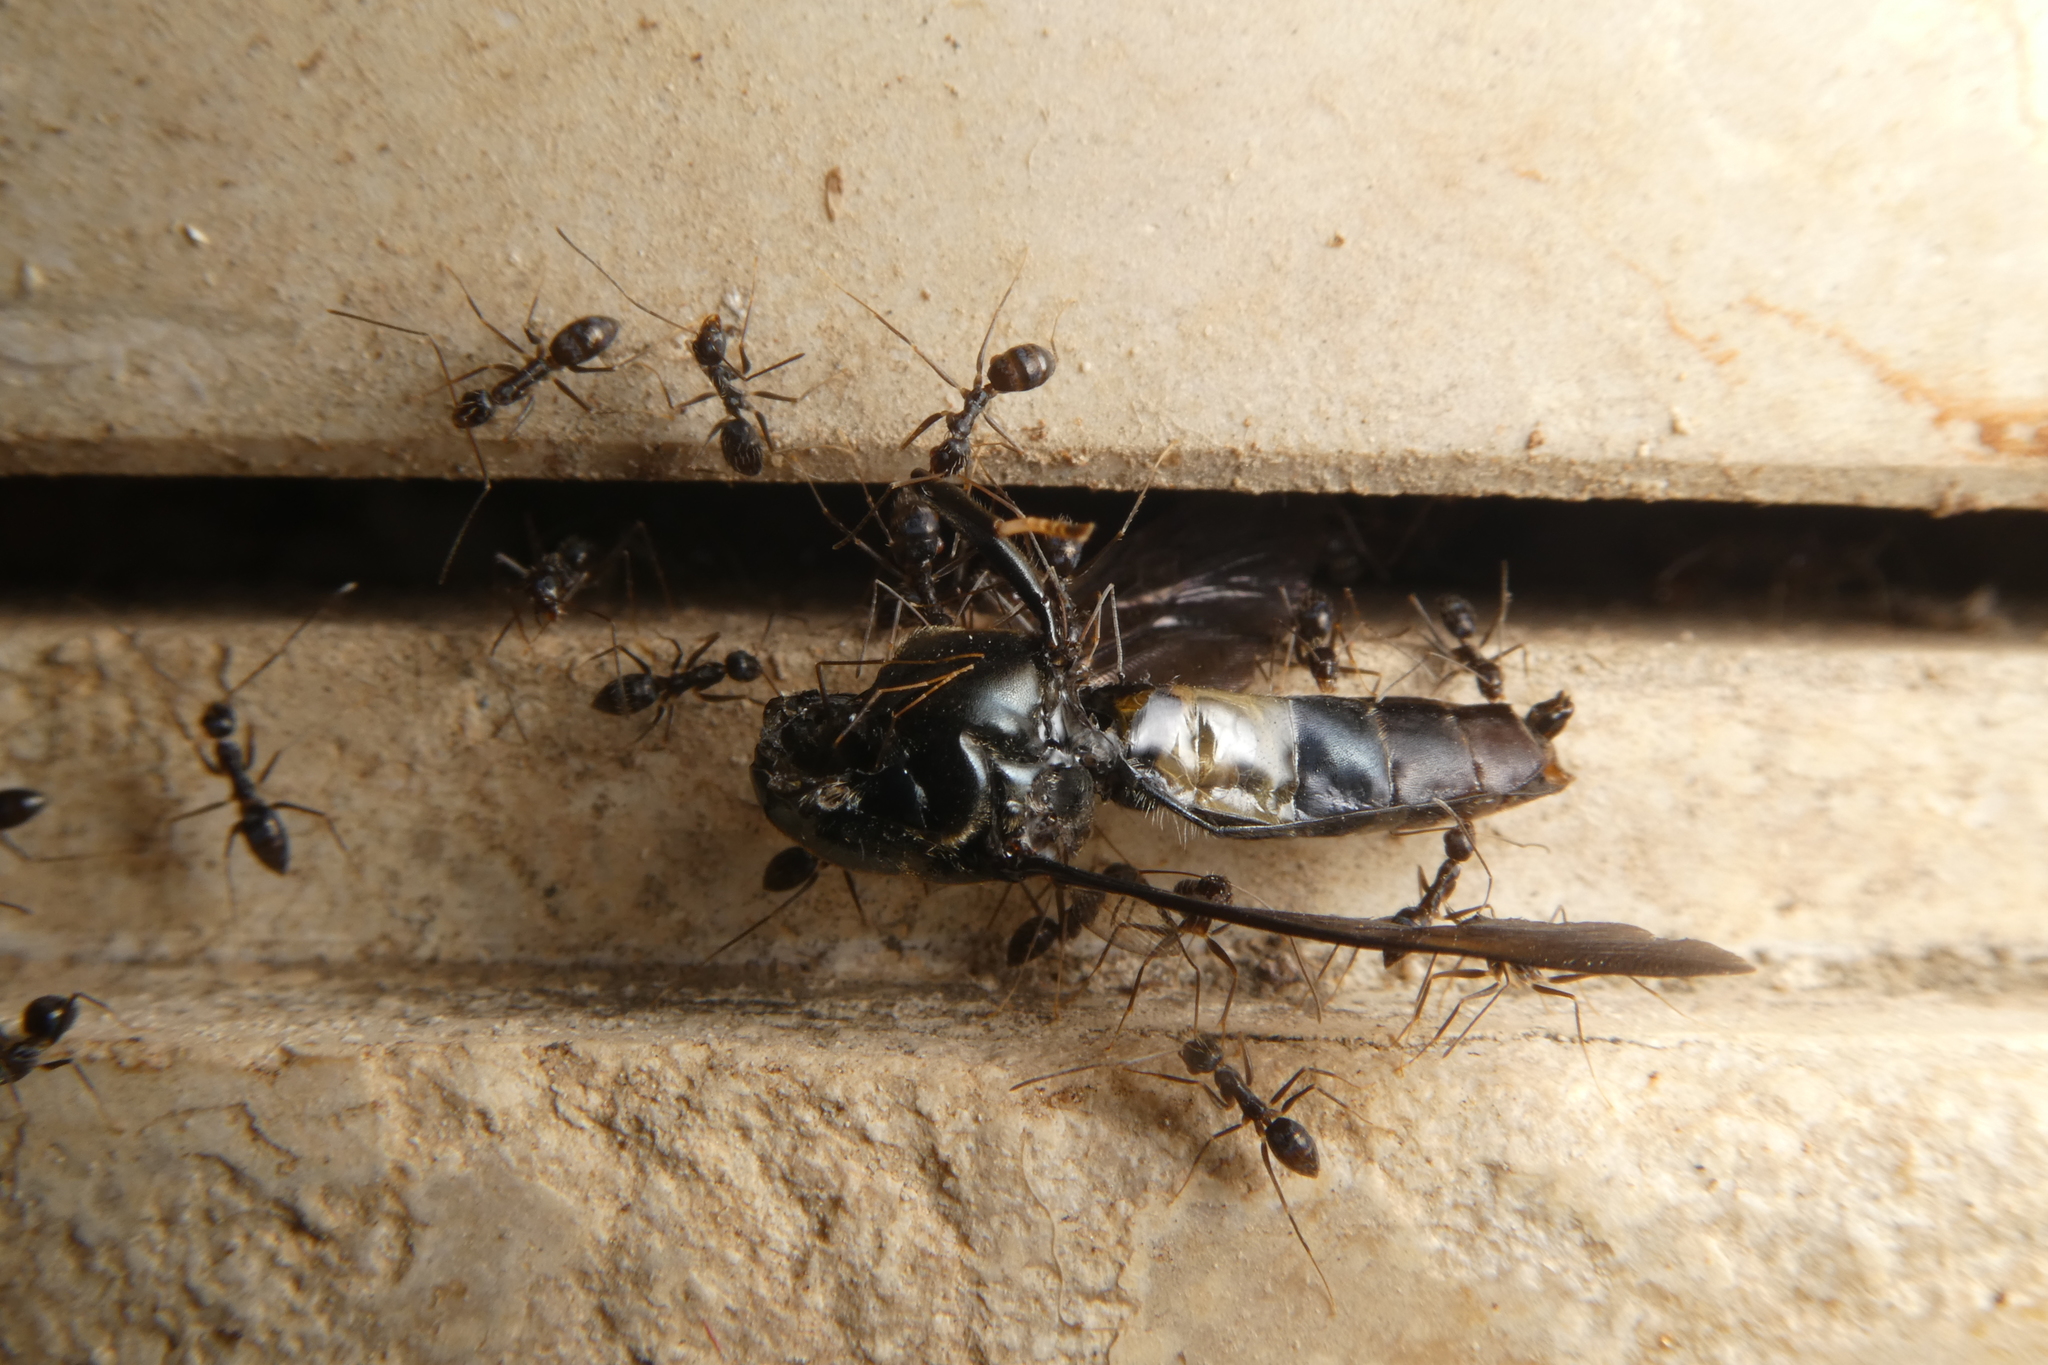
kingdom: Animalia
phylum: Arthropoda
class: Insecta
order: Diptera
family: Stratiomyidae
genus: Hermetia
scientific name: Hermetia illucens
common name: Black soldier fly
